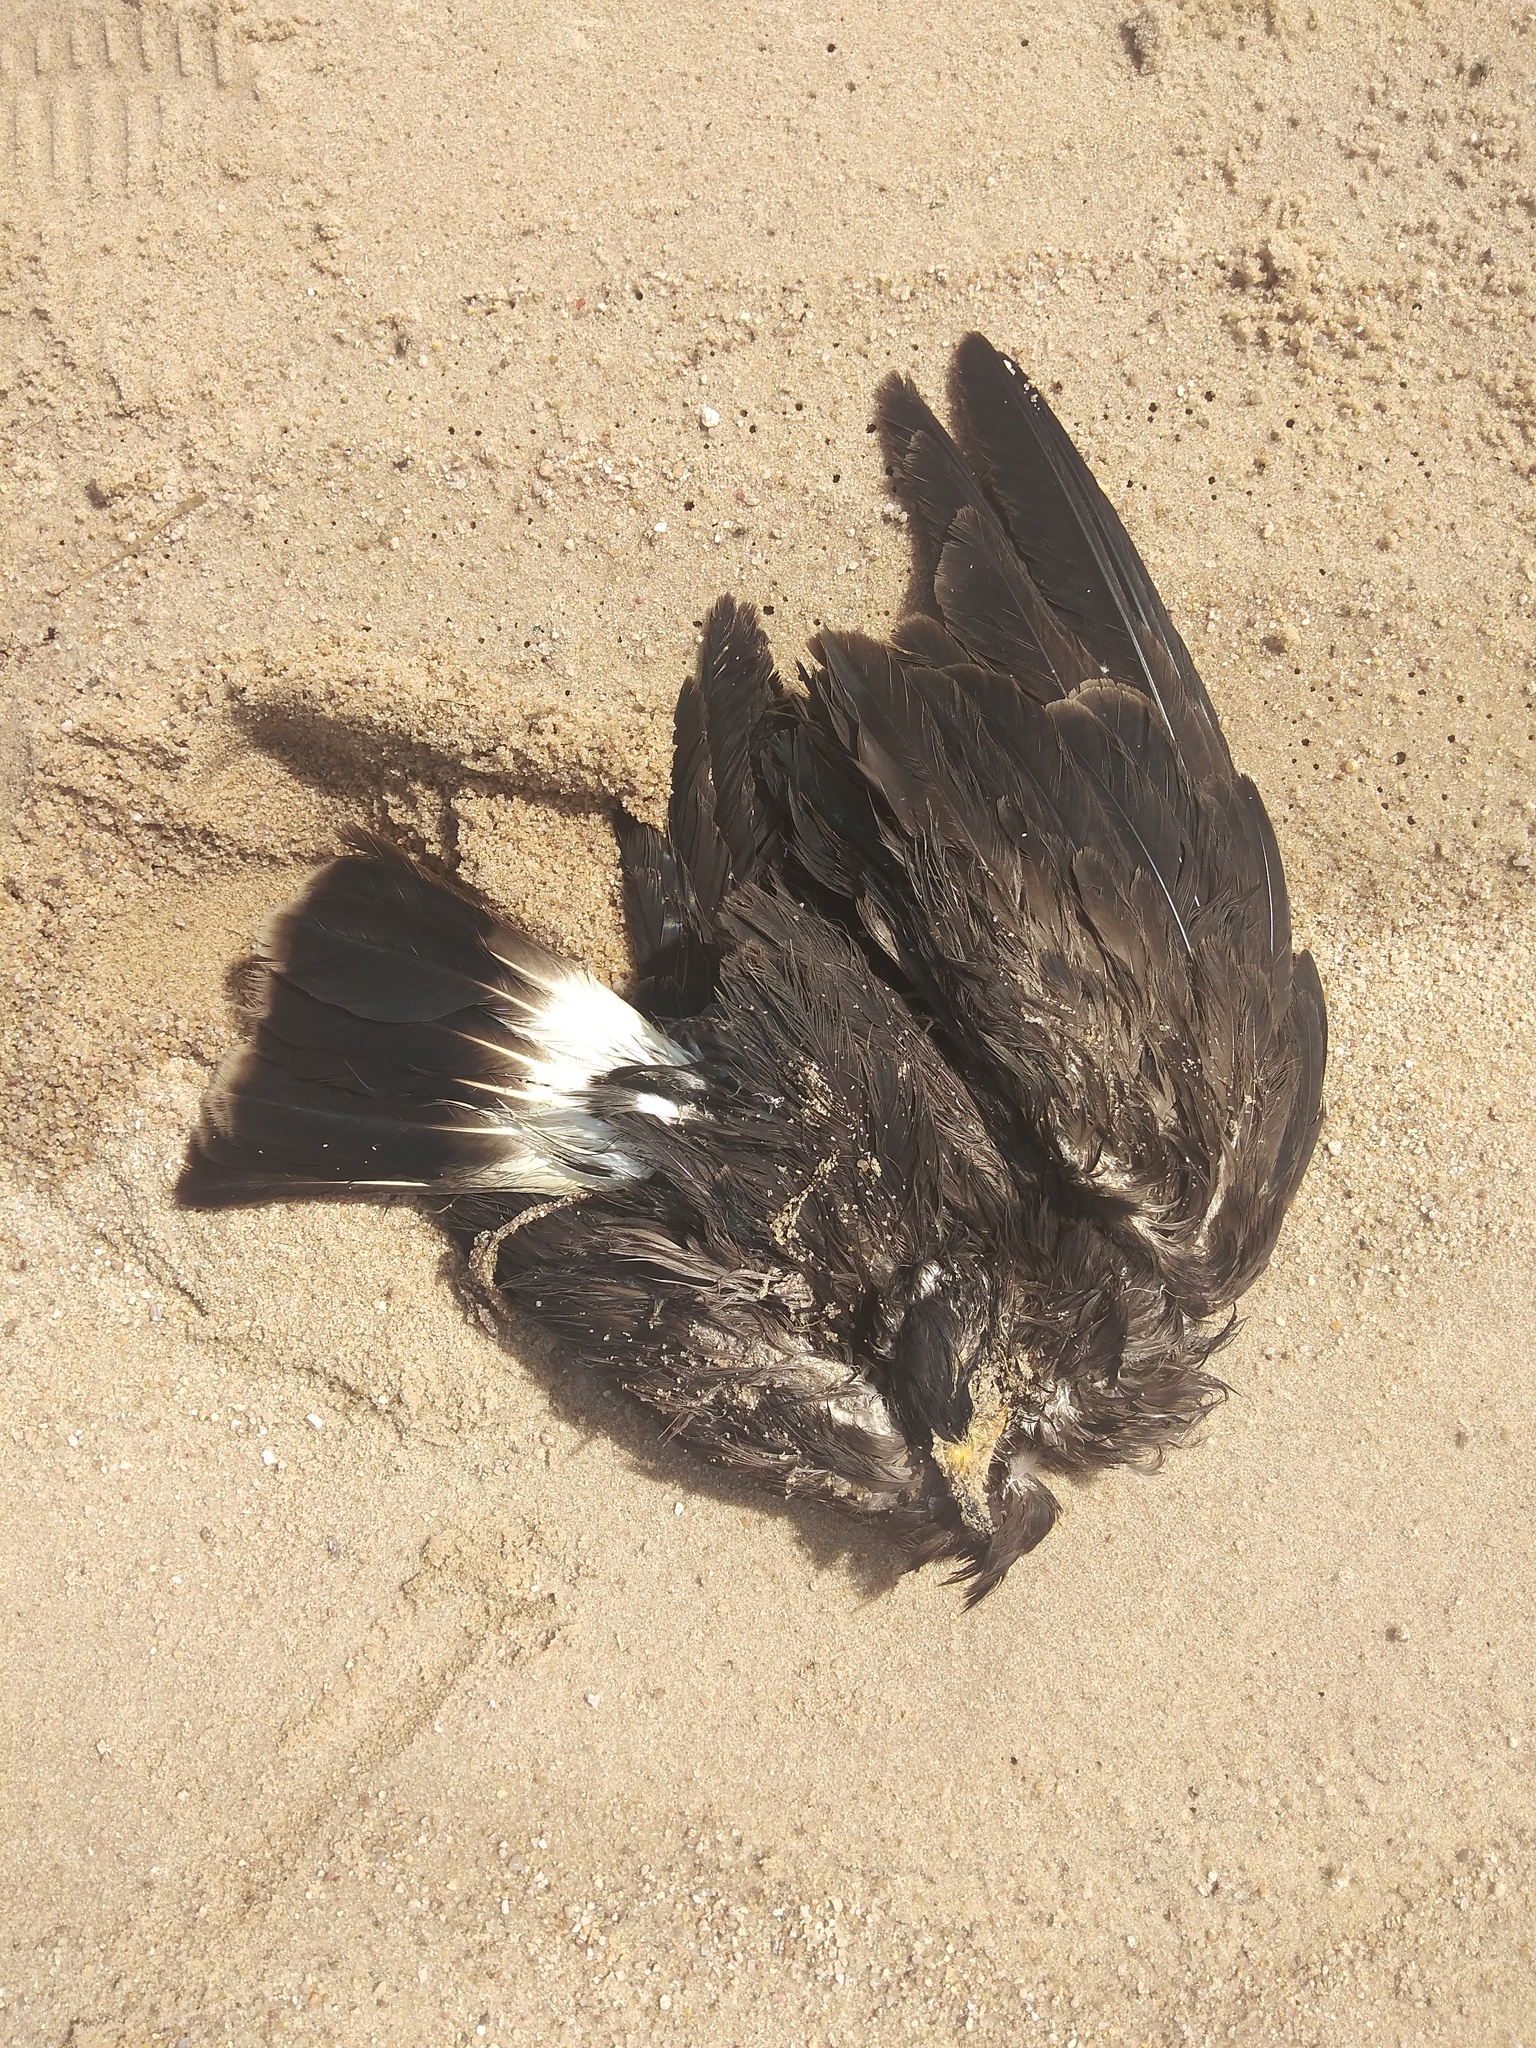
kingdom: Animalia
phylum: Chordata
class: Aves
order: Accipitriformes
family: Accipitridae
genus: Rostrhamus
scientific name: Rostrhamus sociabilis
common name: Snail kite
